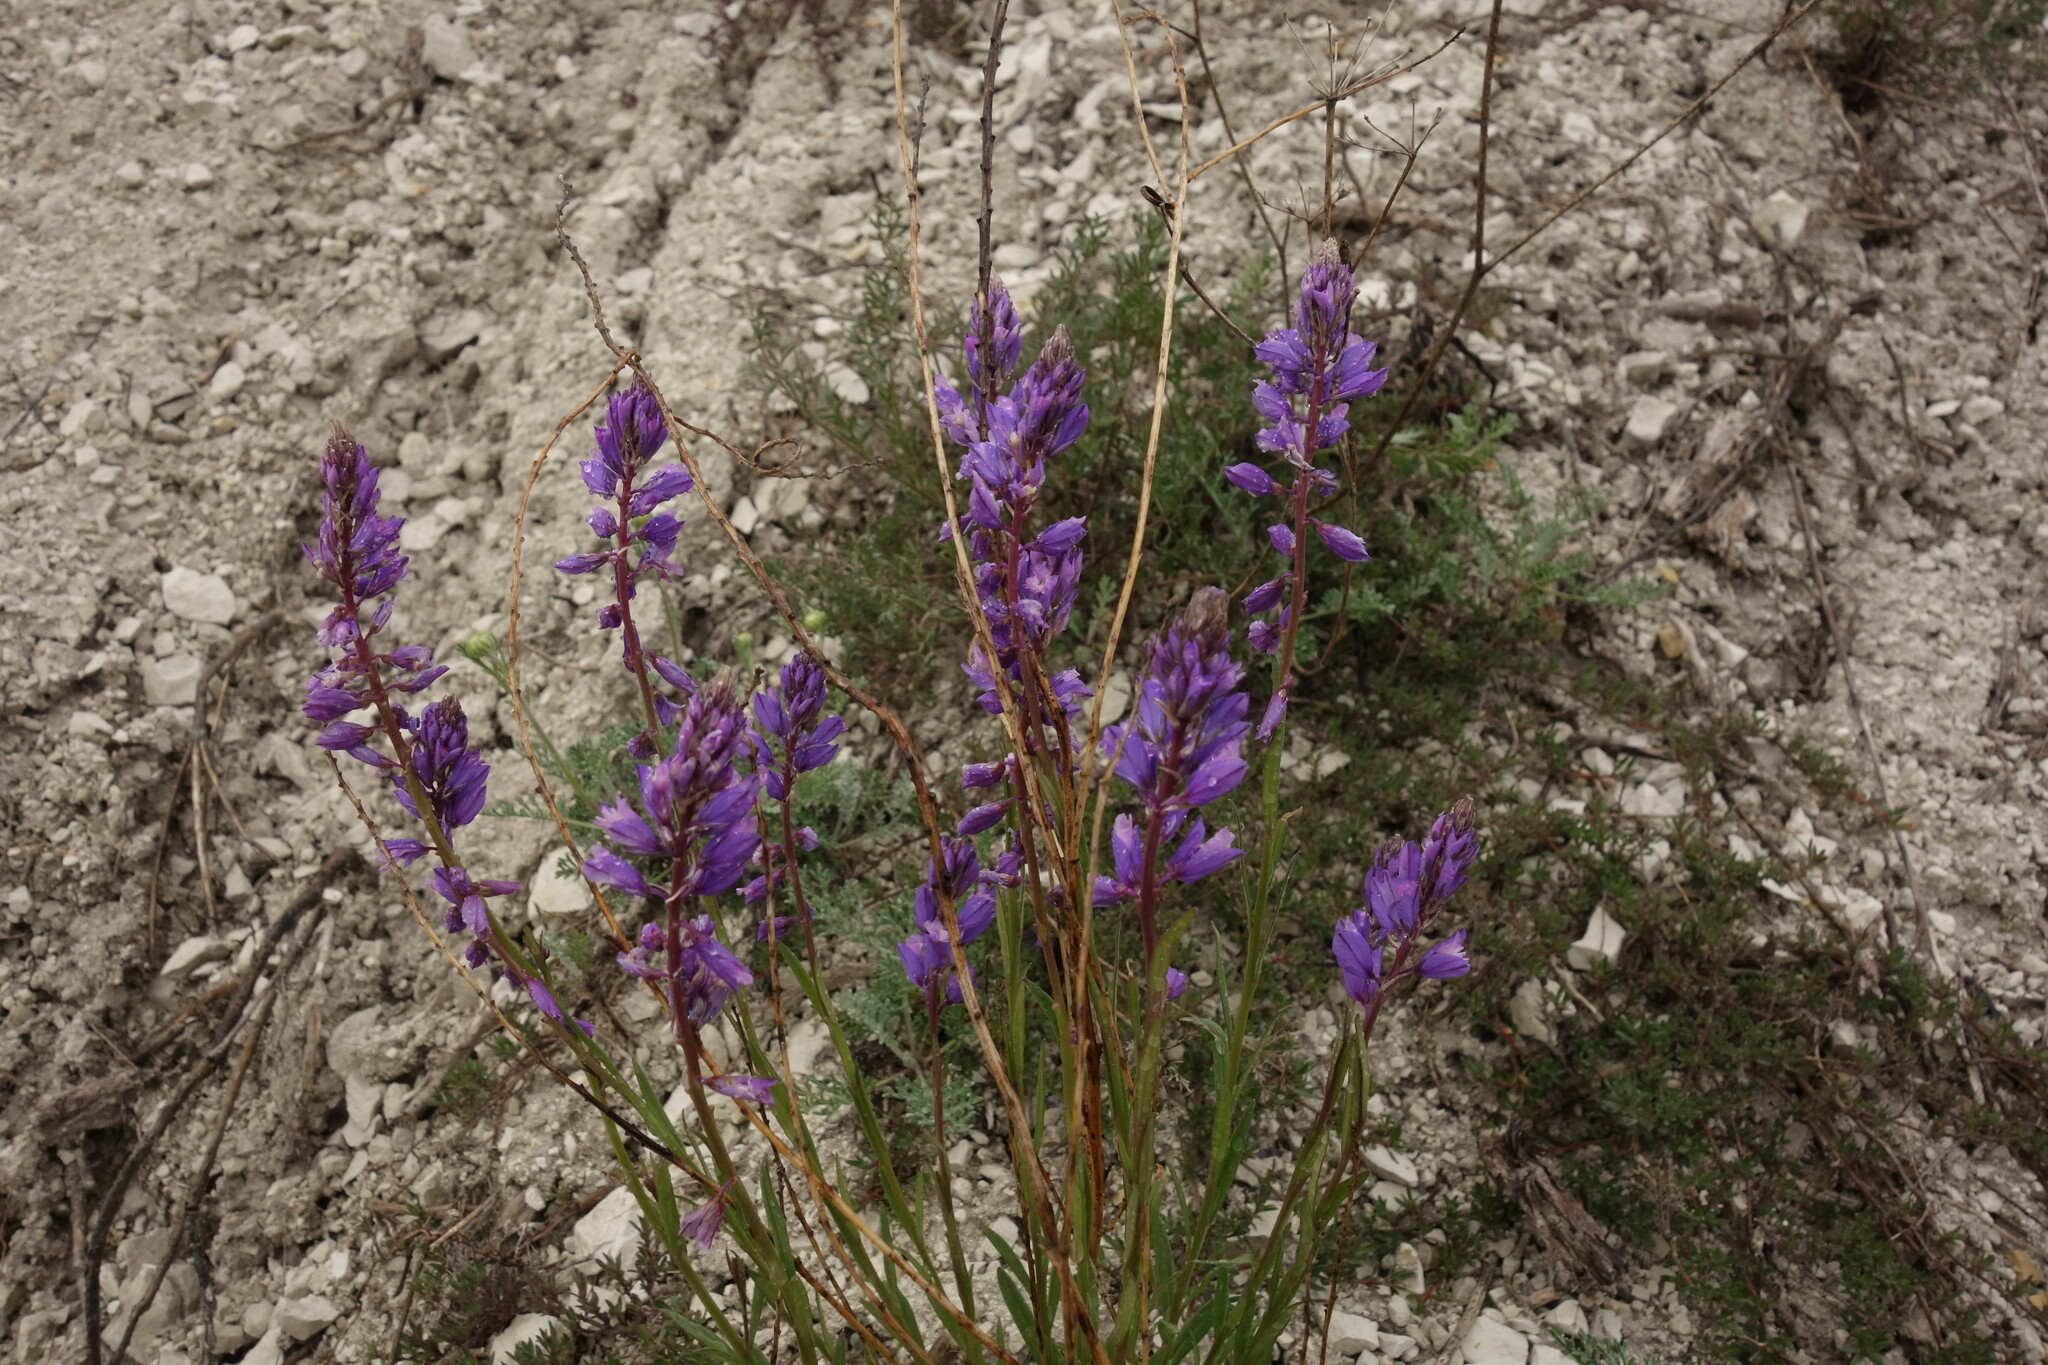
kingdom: Plantae
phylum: Tracheophyta
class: Magnoliopsida
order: Fabales
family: Polygalaceae
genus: Polygala
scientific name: Polygala nicaeensis
